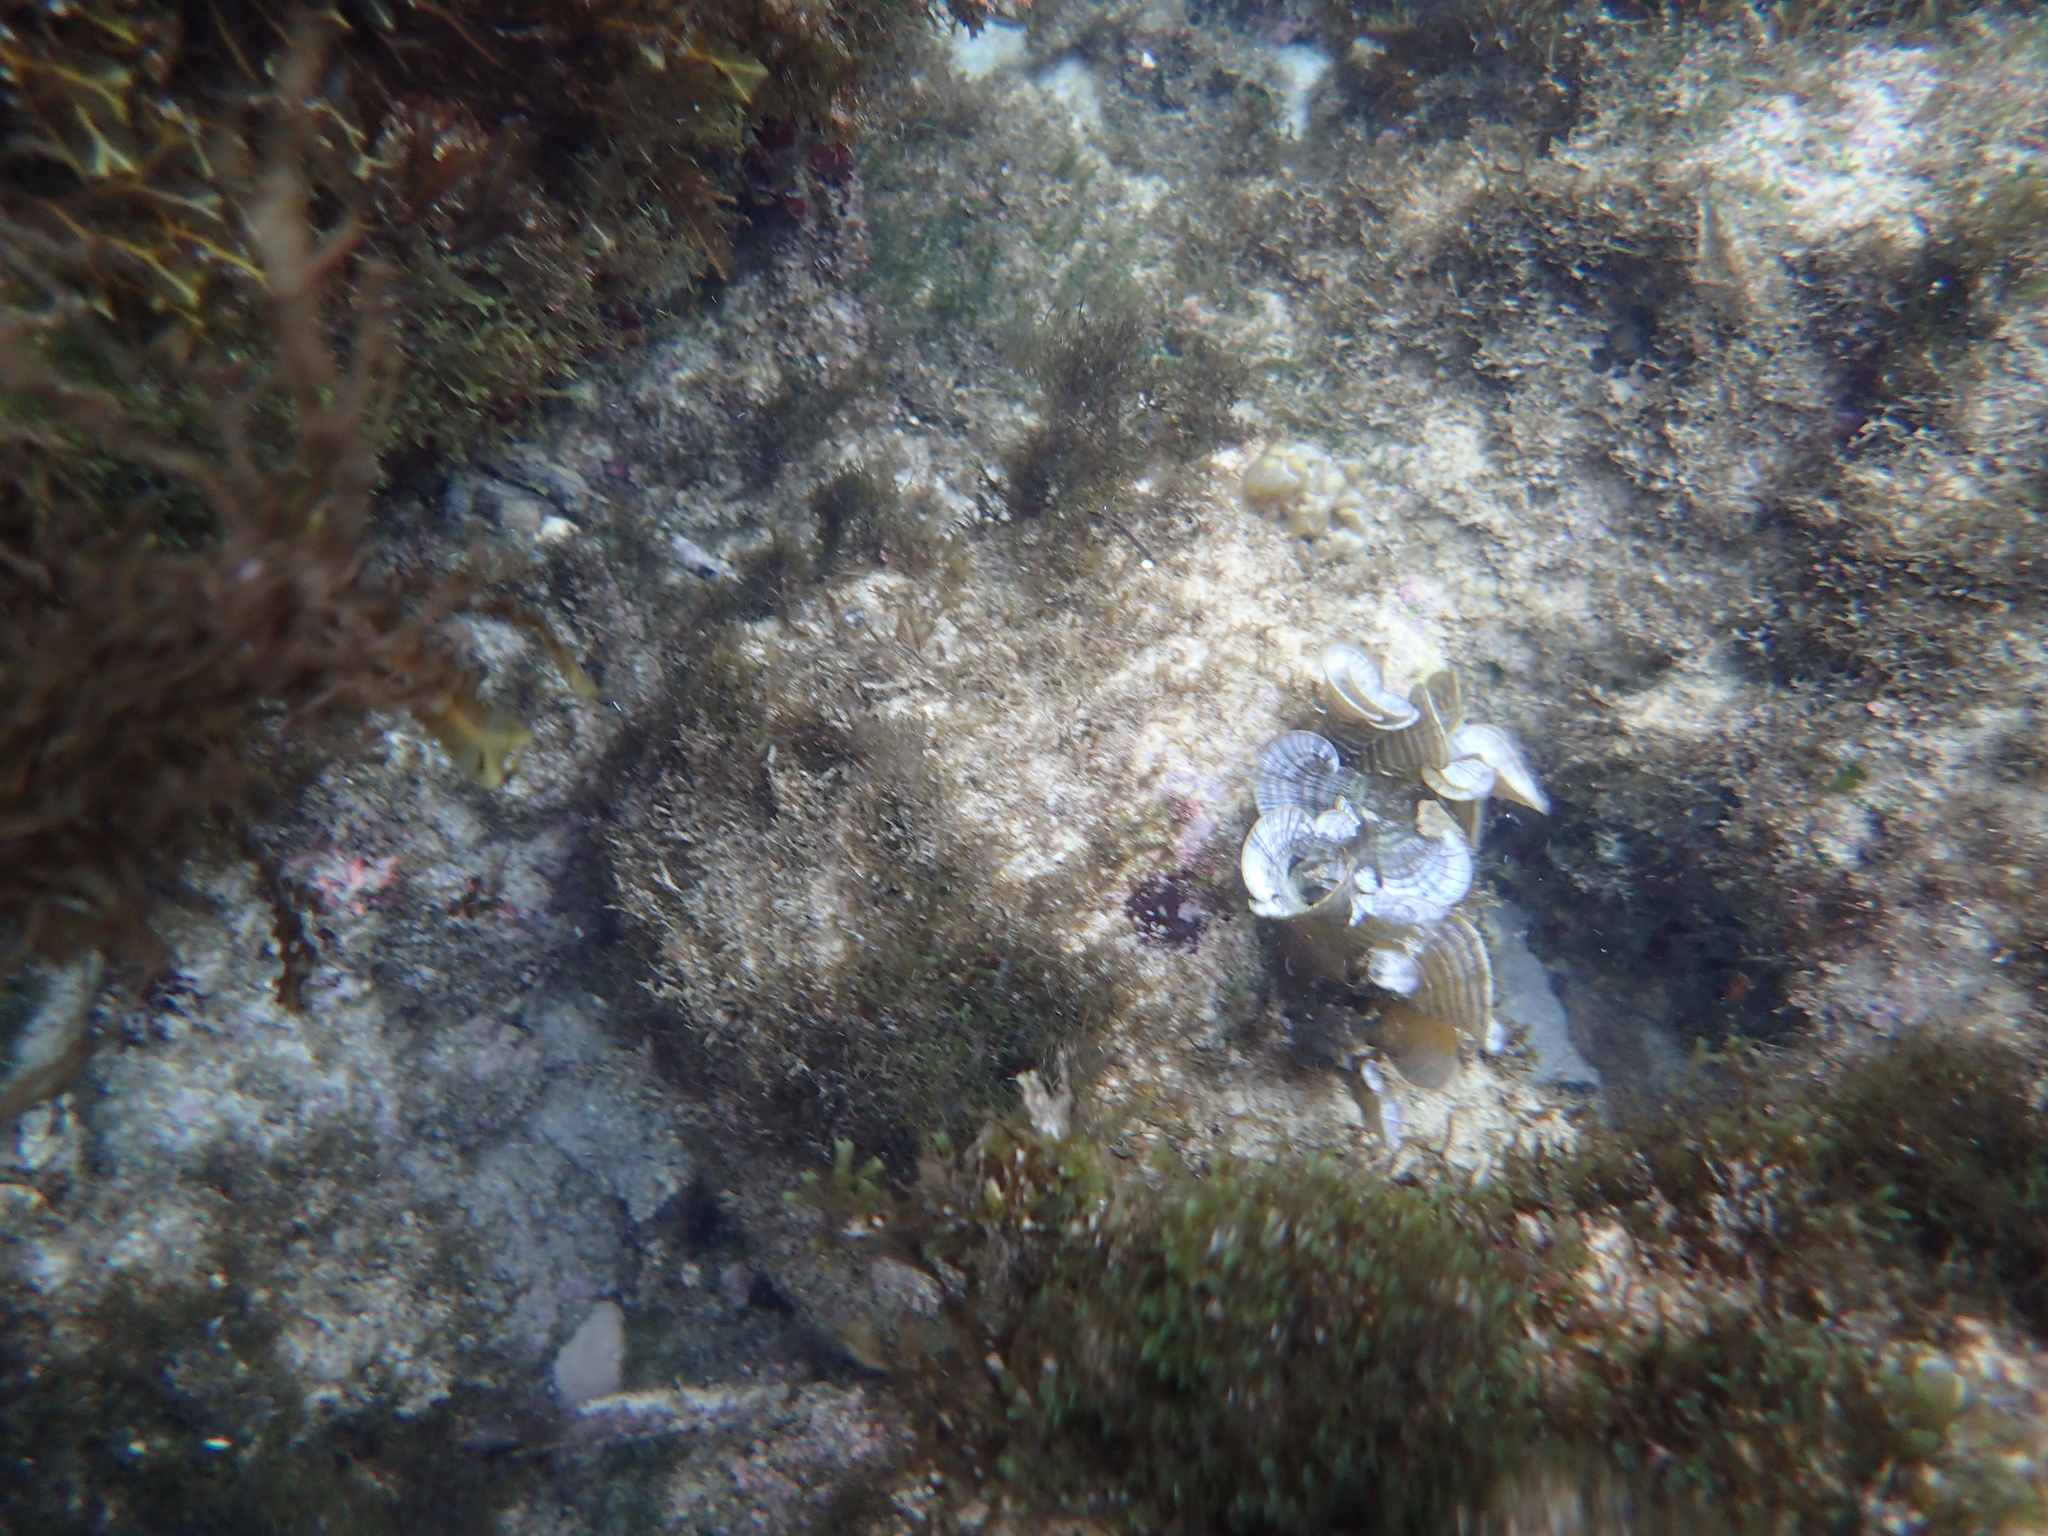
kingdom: Chromista
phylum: Ochrophyta
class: Phaeophyceae
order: Dictyotales
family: Dictyotaceae
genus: Padina
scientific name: Padina
